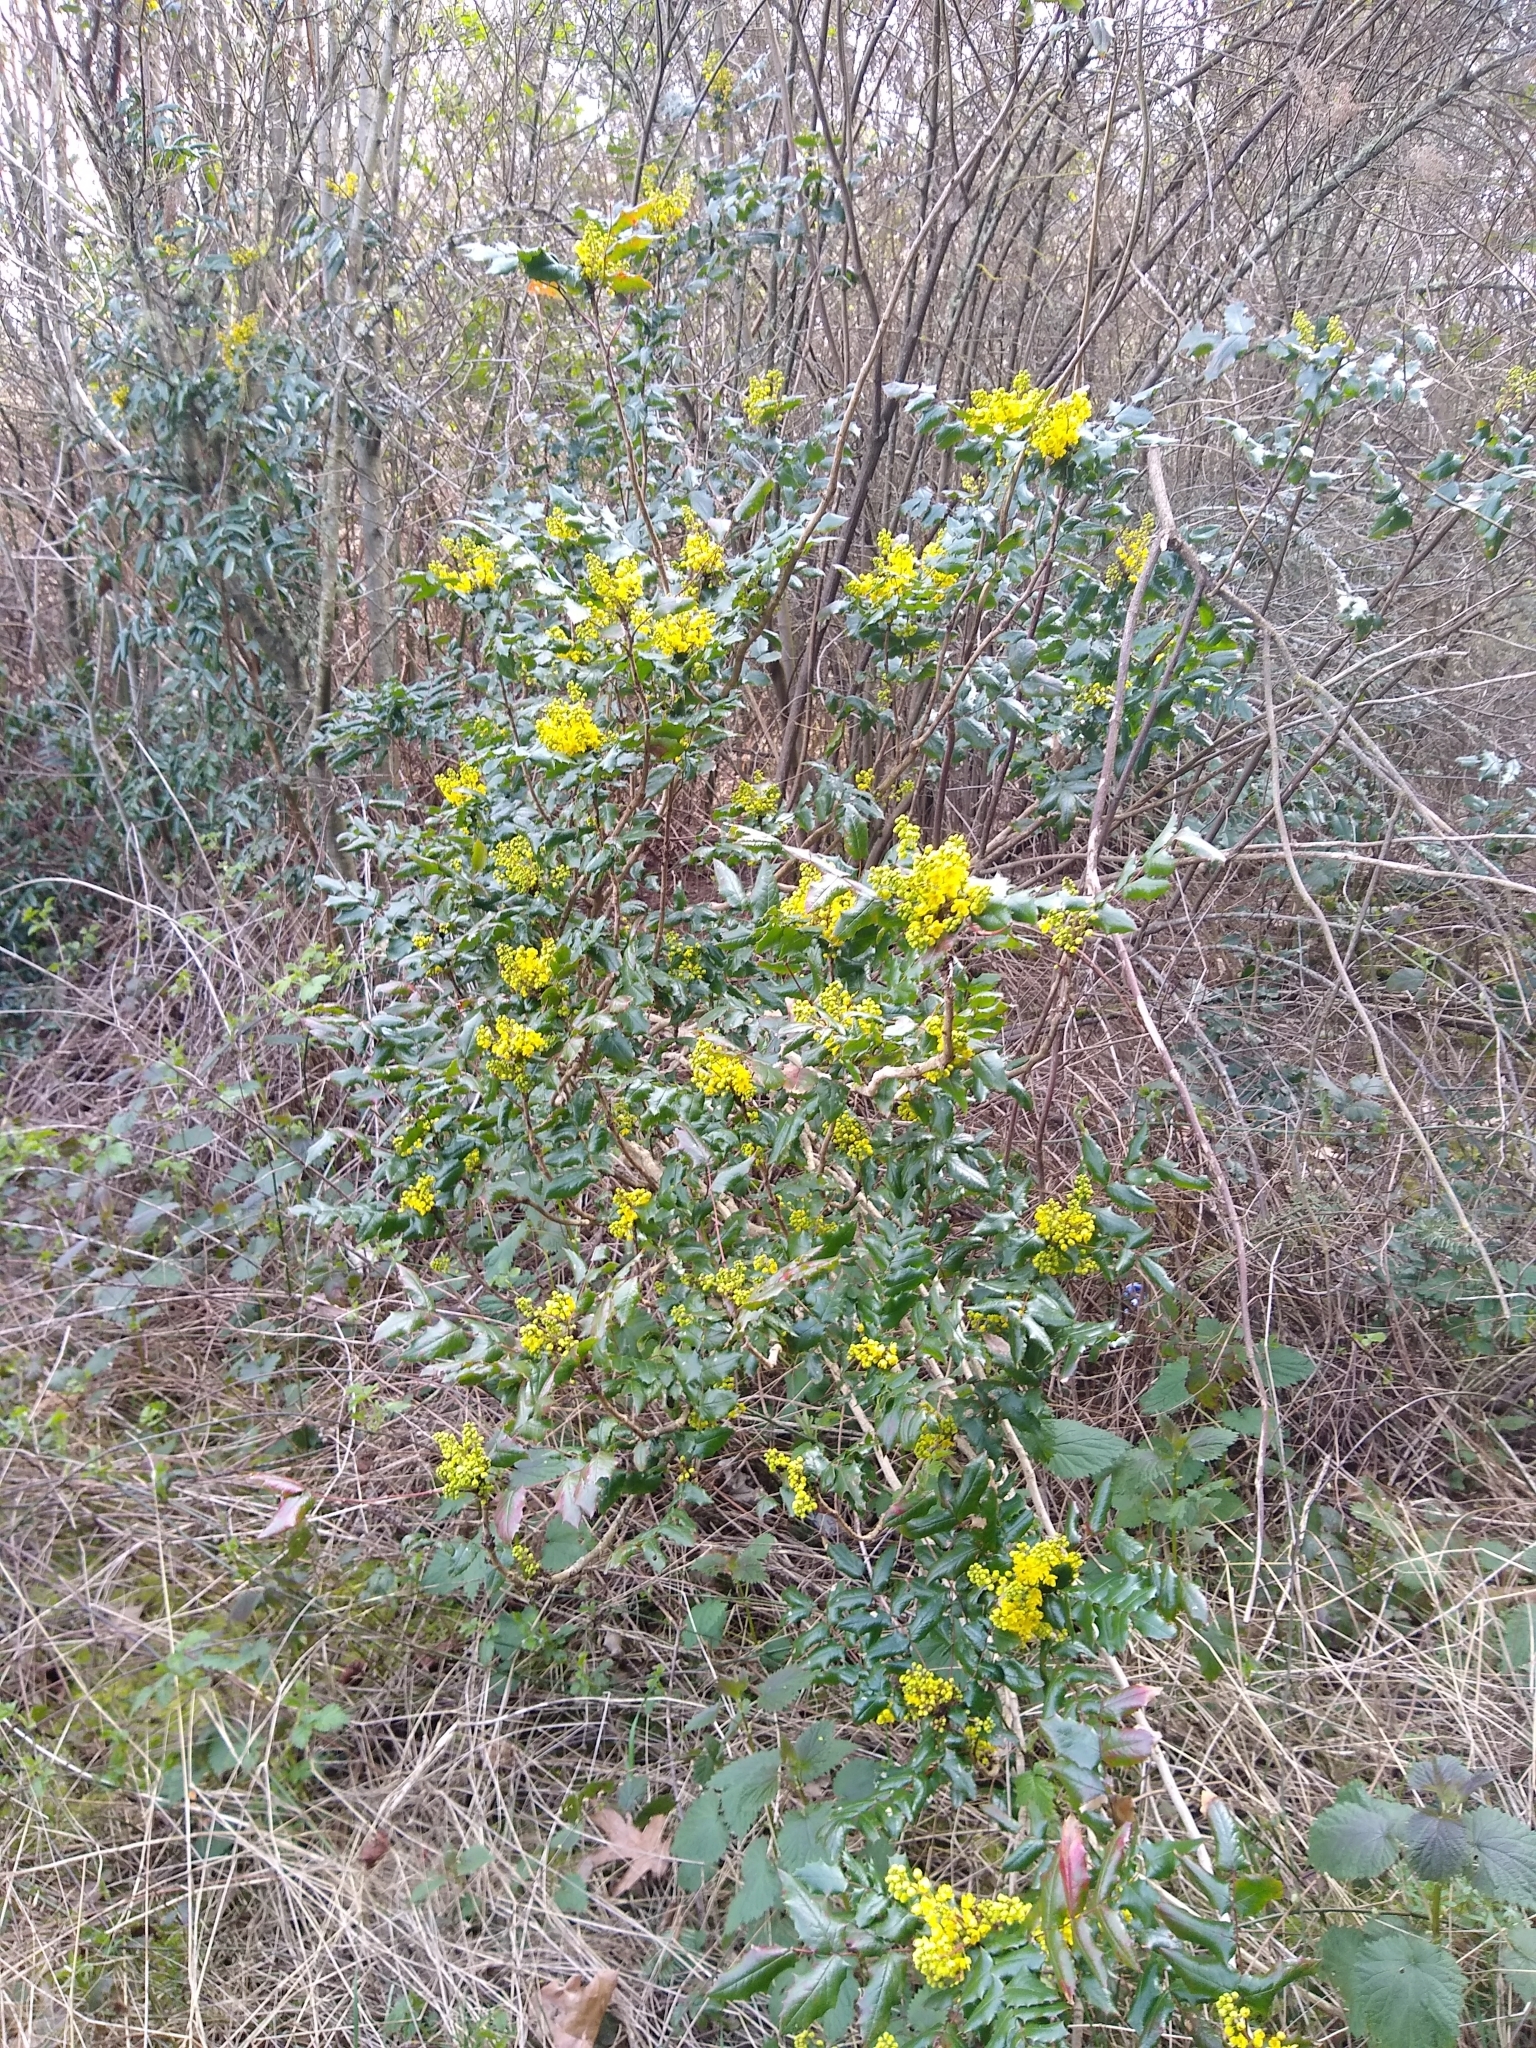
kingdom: Plantae
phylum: Tracheophyta
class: Magnoliopsida
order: Ranunculales
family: Berberidaceae
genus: Mahonia
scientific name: Mahonia aquifolium
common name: Oregon-grape
